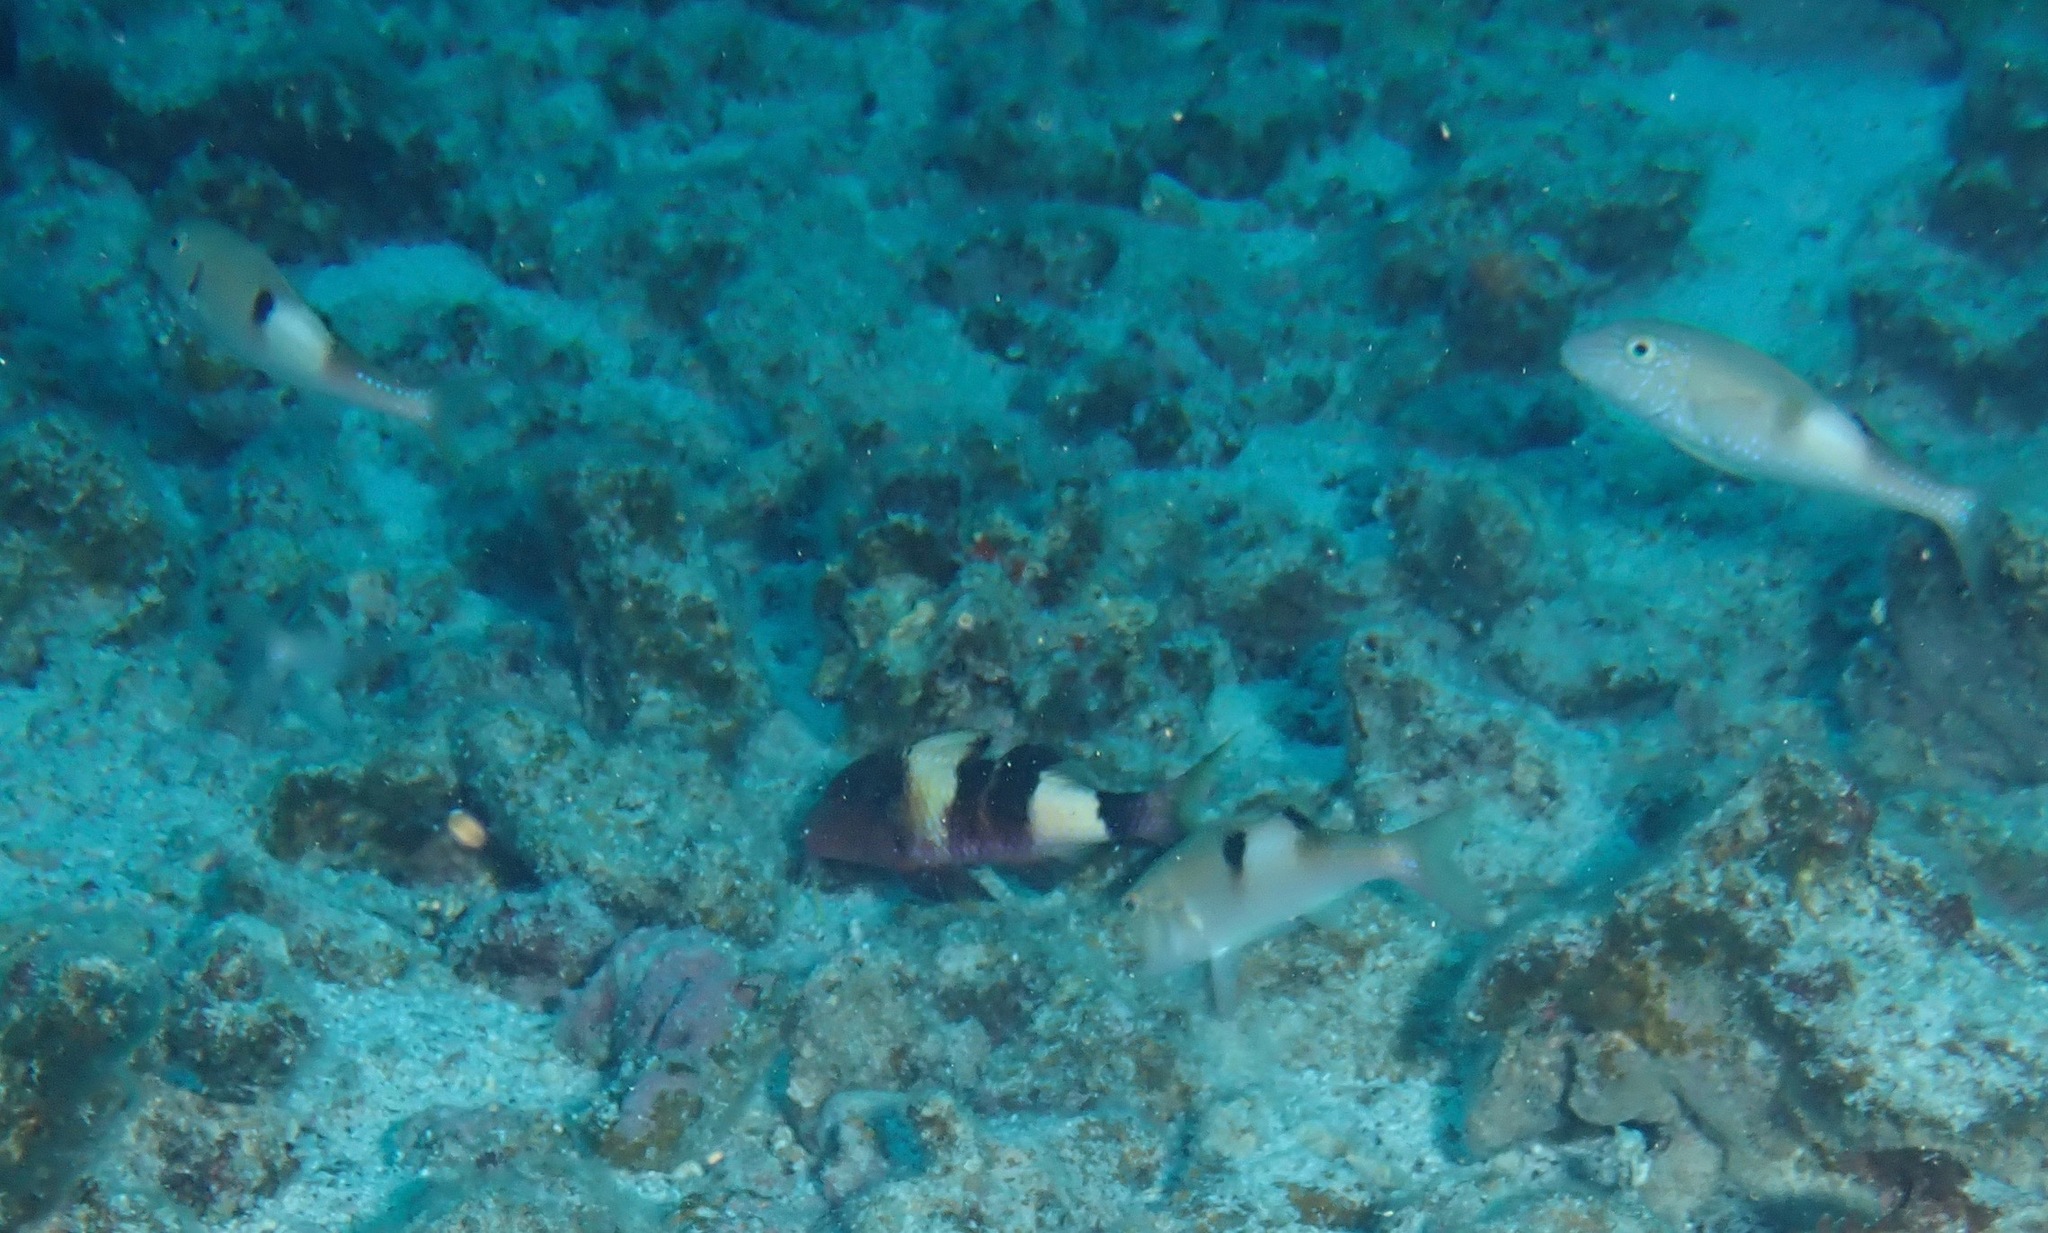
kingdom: Animalia
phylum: Chordata
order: Perciformes
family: Mullidae
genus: Parupeneus
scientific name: Parupeneus multifasciatus
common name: Manybar goatfish
